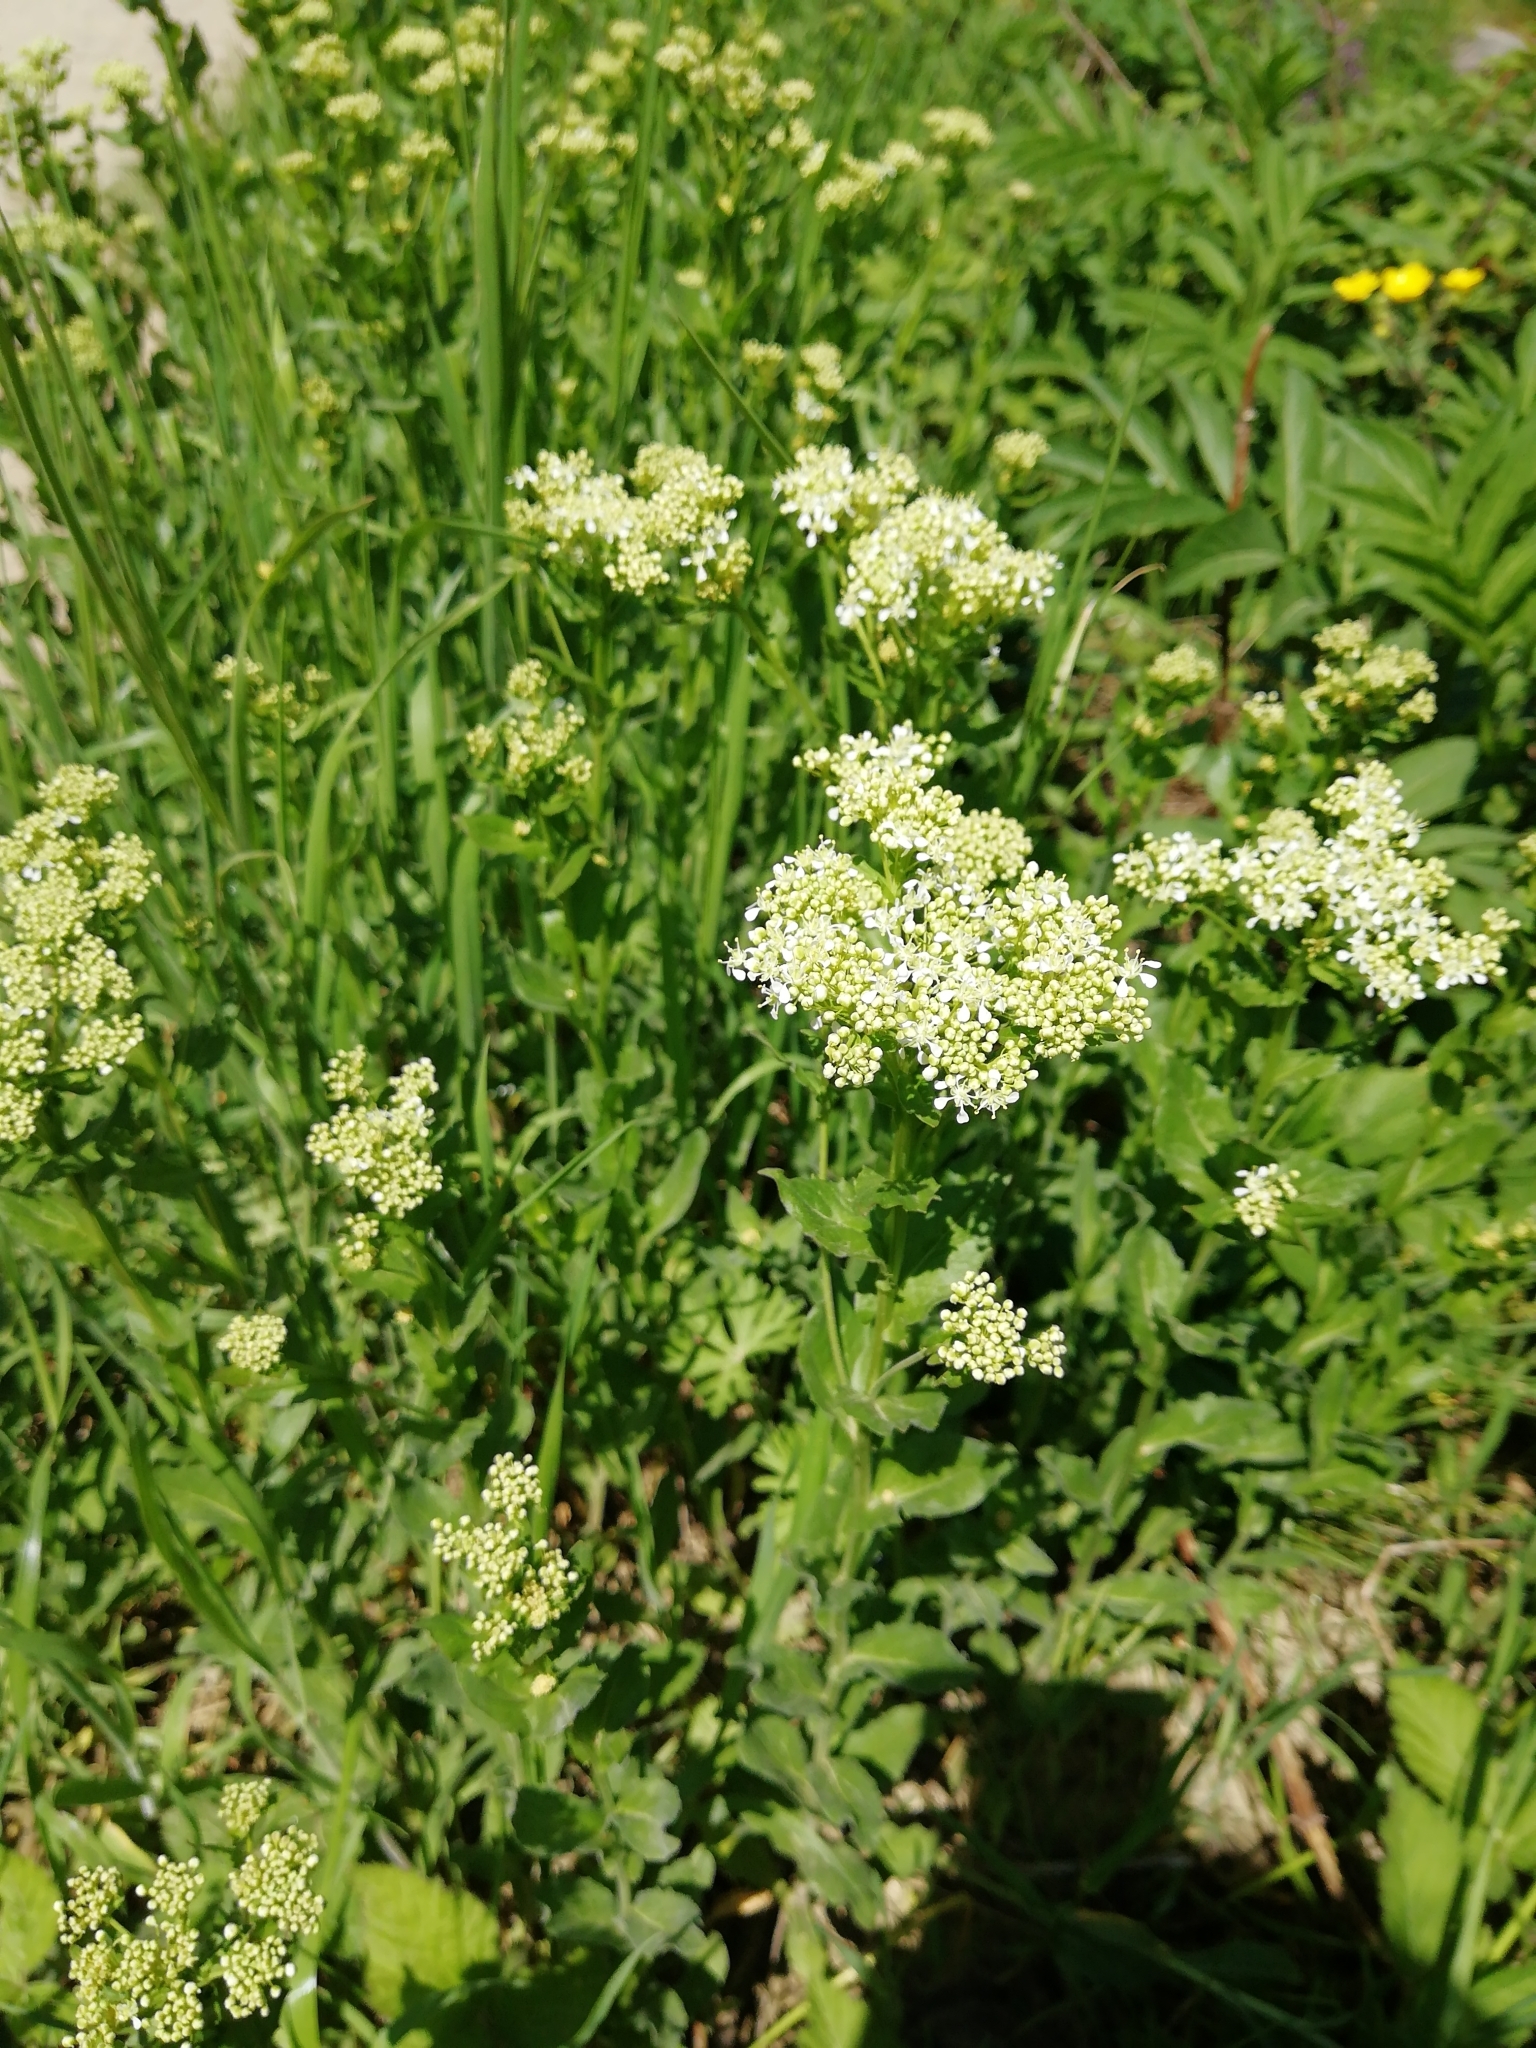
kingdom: Plantae
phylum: Tracheophyta
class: Magnoliopsida
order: Brassicales
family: Brassicaceae
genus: Lepidium
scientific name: Lepidium draba
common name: Hoary cress
